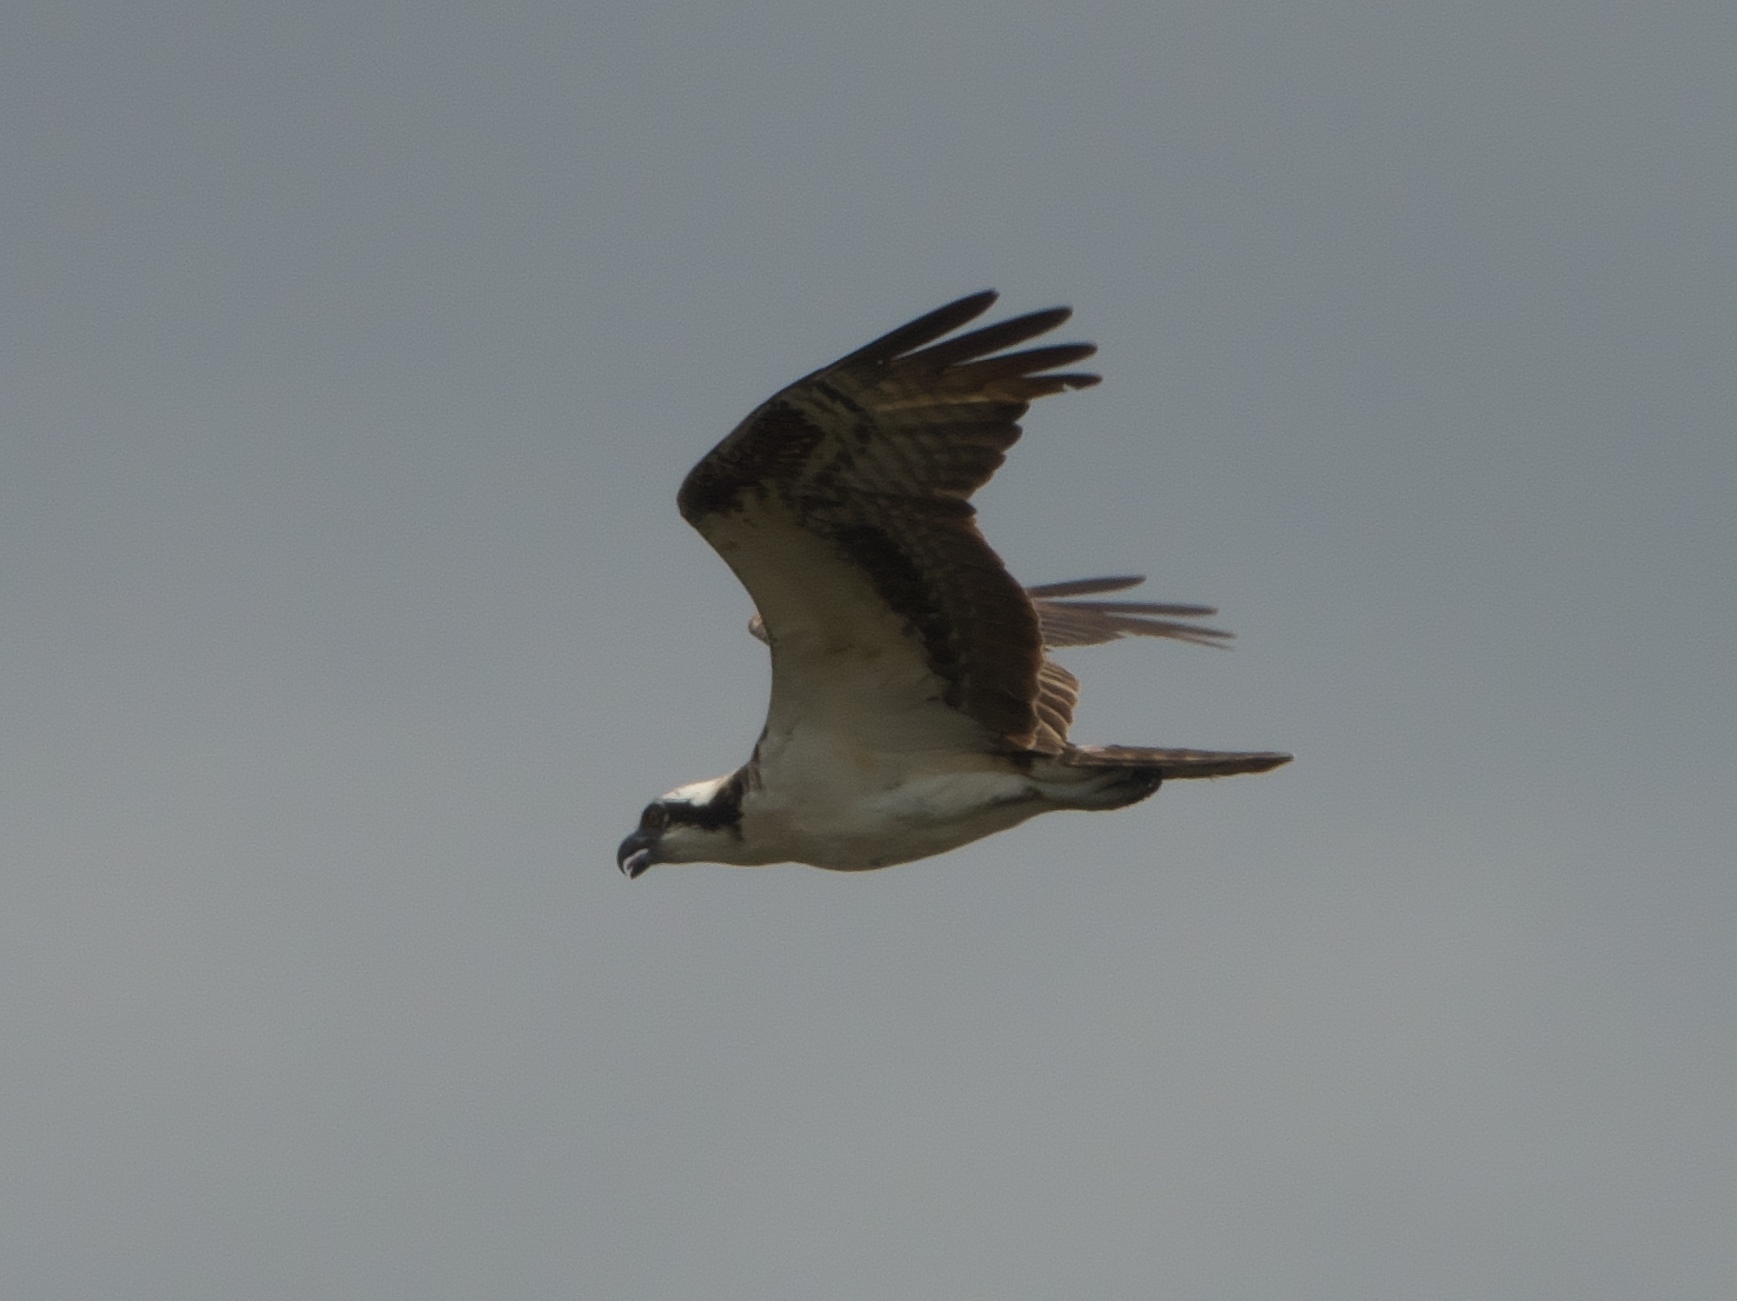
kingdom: Animalia
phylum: Chordata
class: Aves
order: Accipitriformes
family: Pandionidae
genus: Pandion
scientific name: Pandion haliaetus
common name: Osprey
